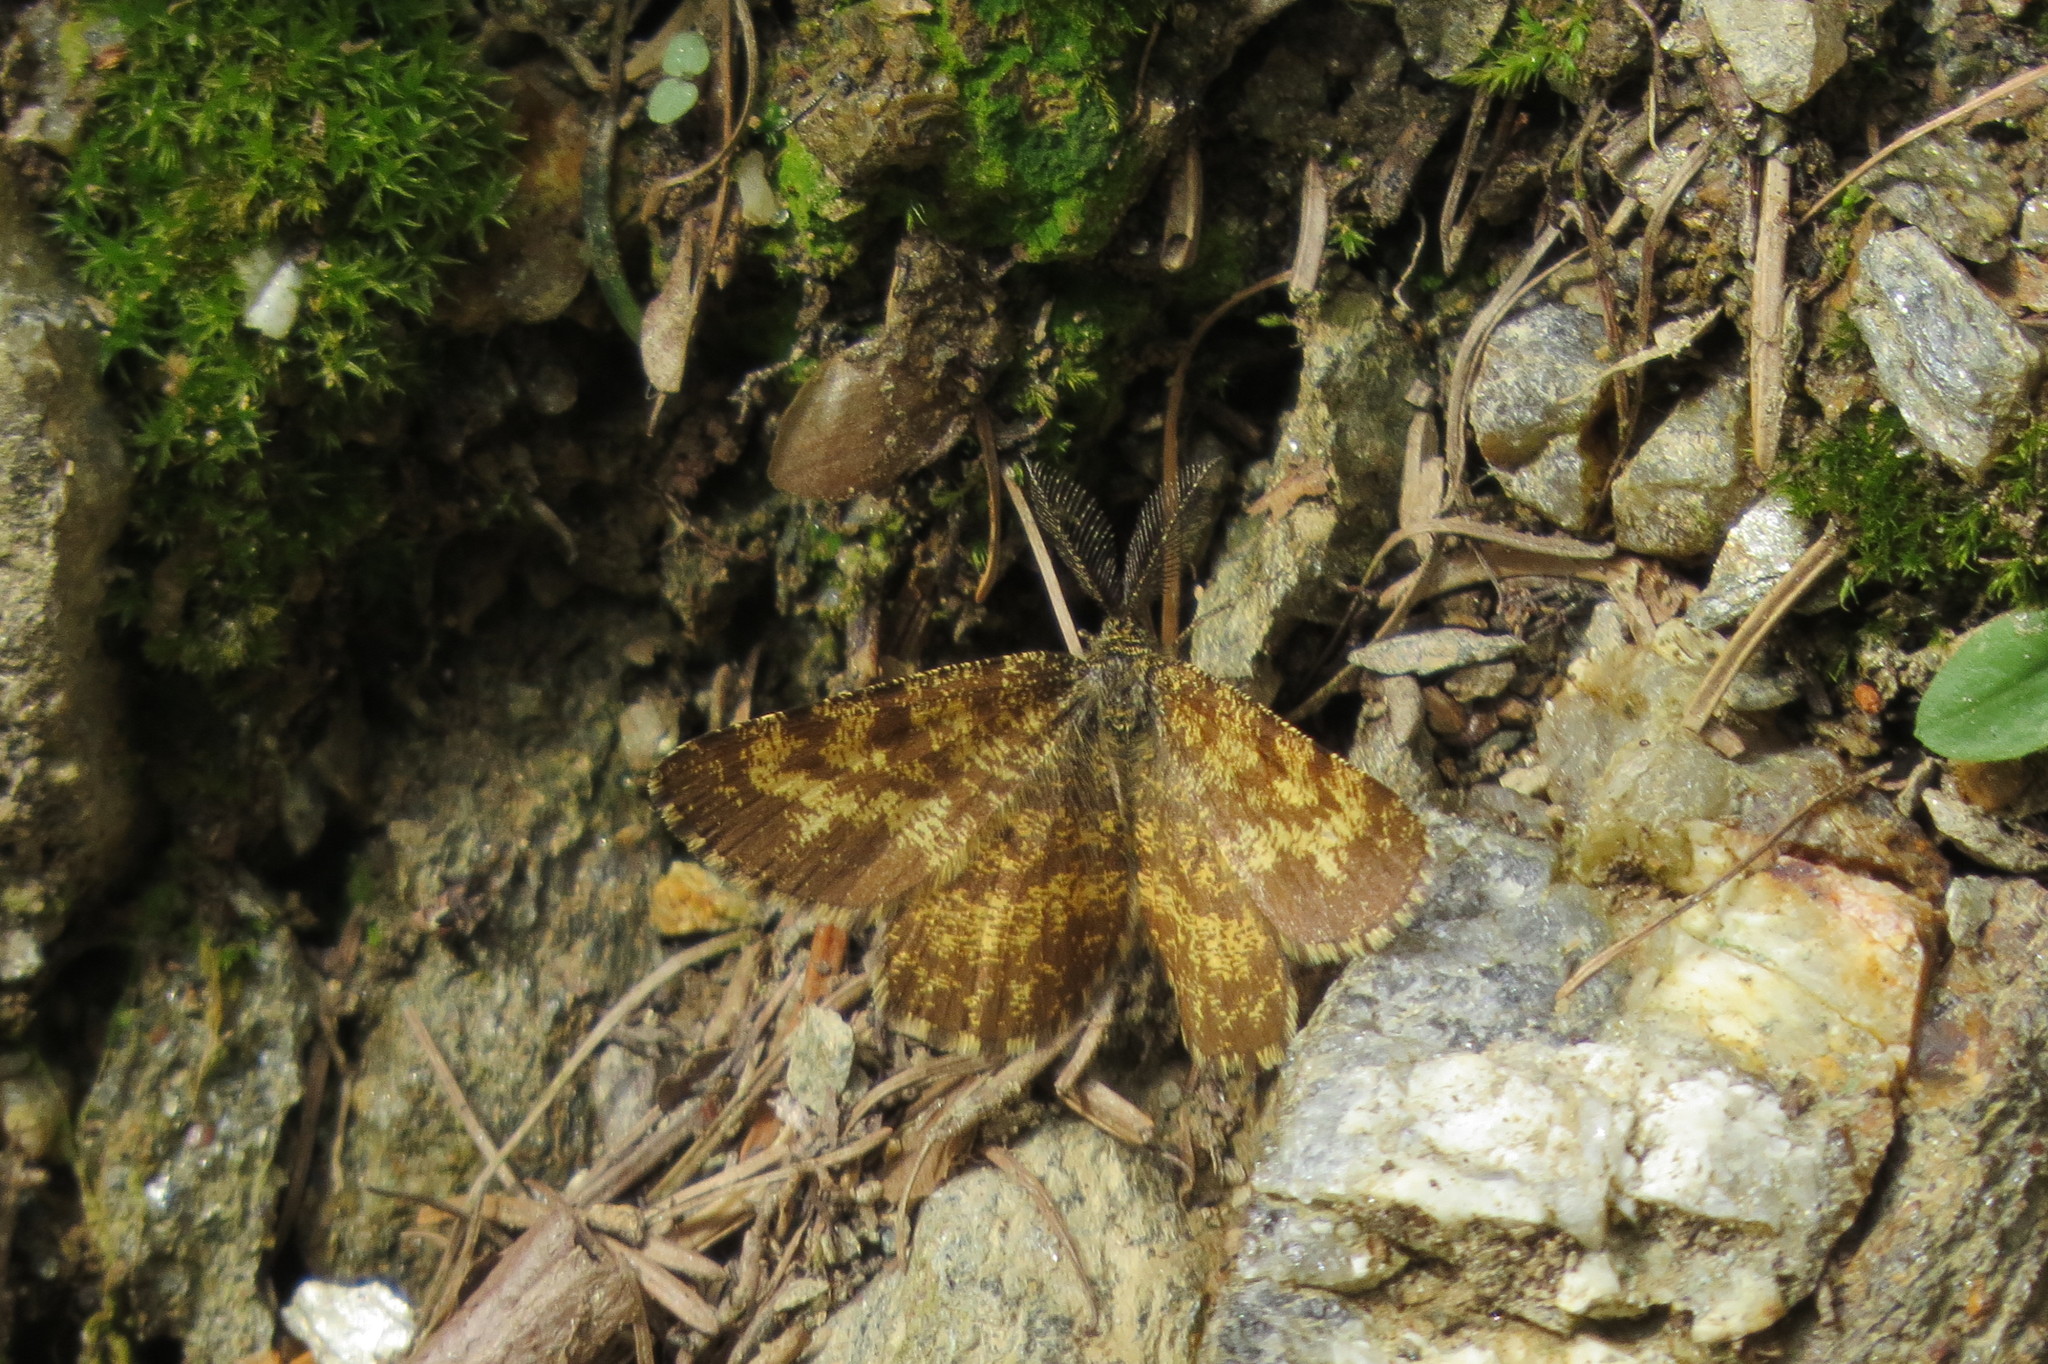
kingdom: Animalia
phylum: Arthropoda
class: Insecta
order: Lepidoptera
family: Geometridae
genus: Ematurga
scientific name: Ematurga atomaria
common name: Common heath
